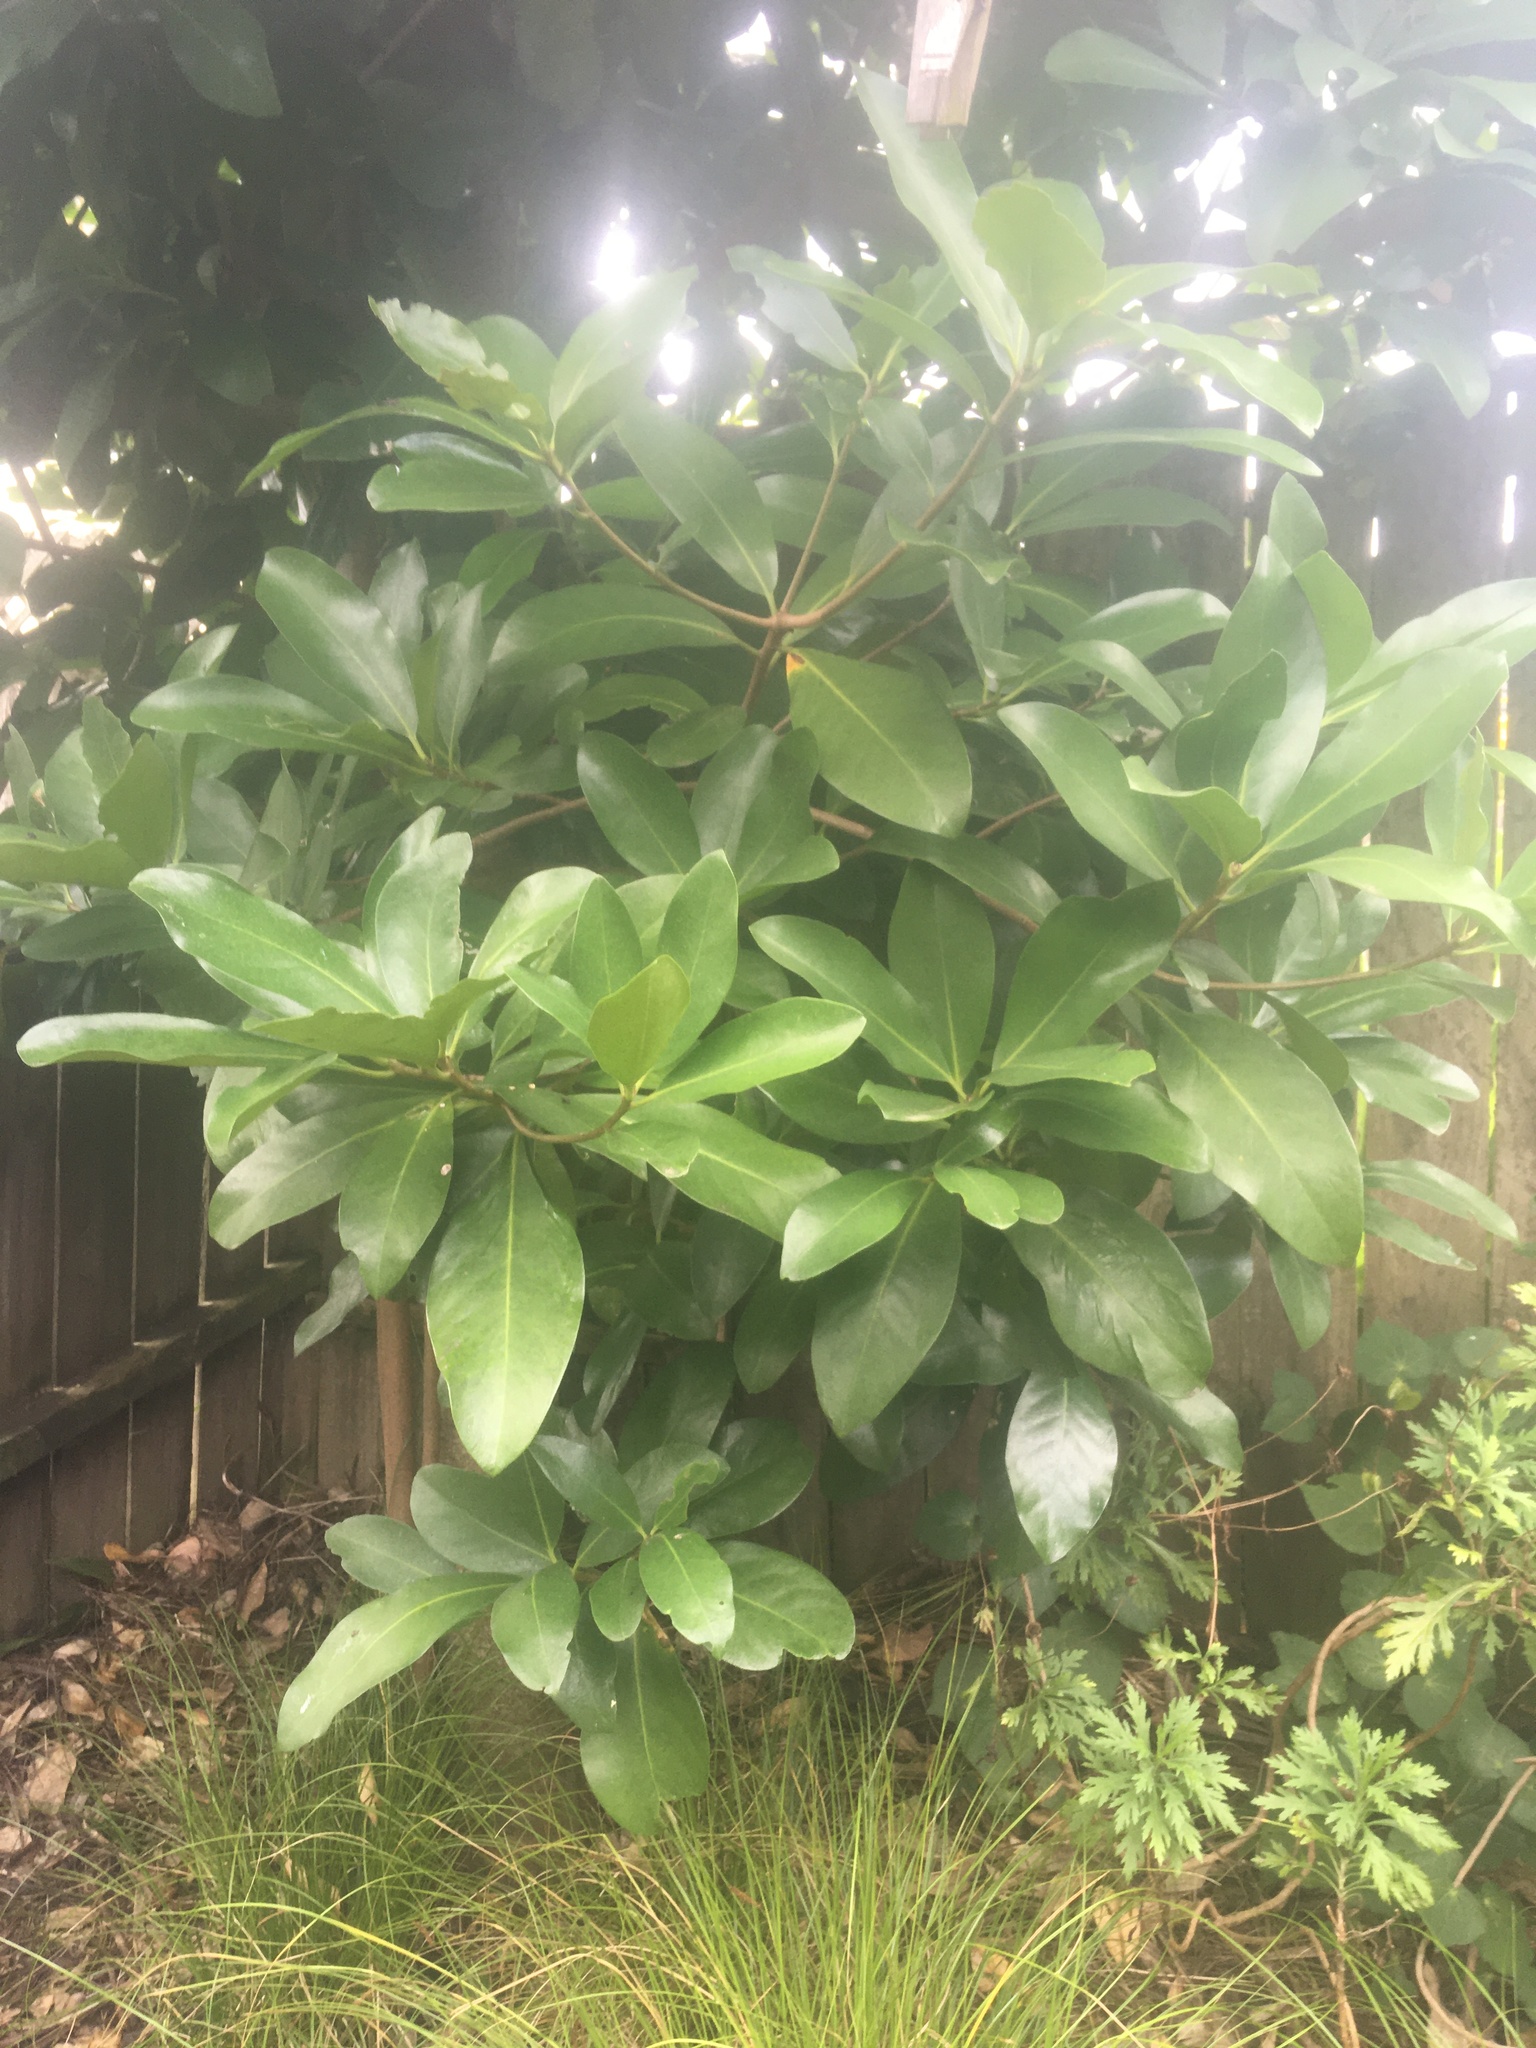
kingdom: Plantae
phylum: Tracheophyta
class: Magnoliopsida
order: Cucurbitales
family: Corynocarpaceae
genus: Corynocarpus
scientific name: Corynocarpus laevigatus
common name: New zealand laurel
